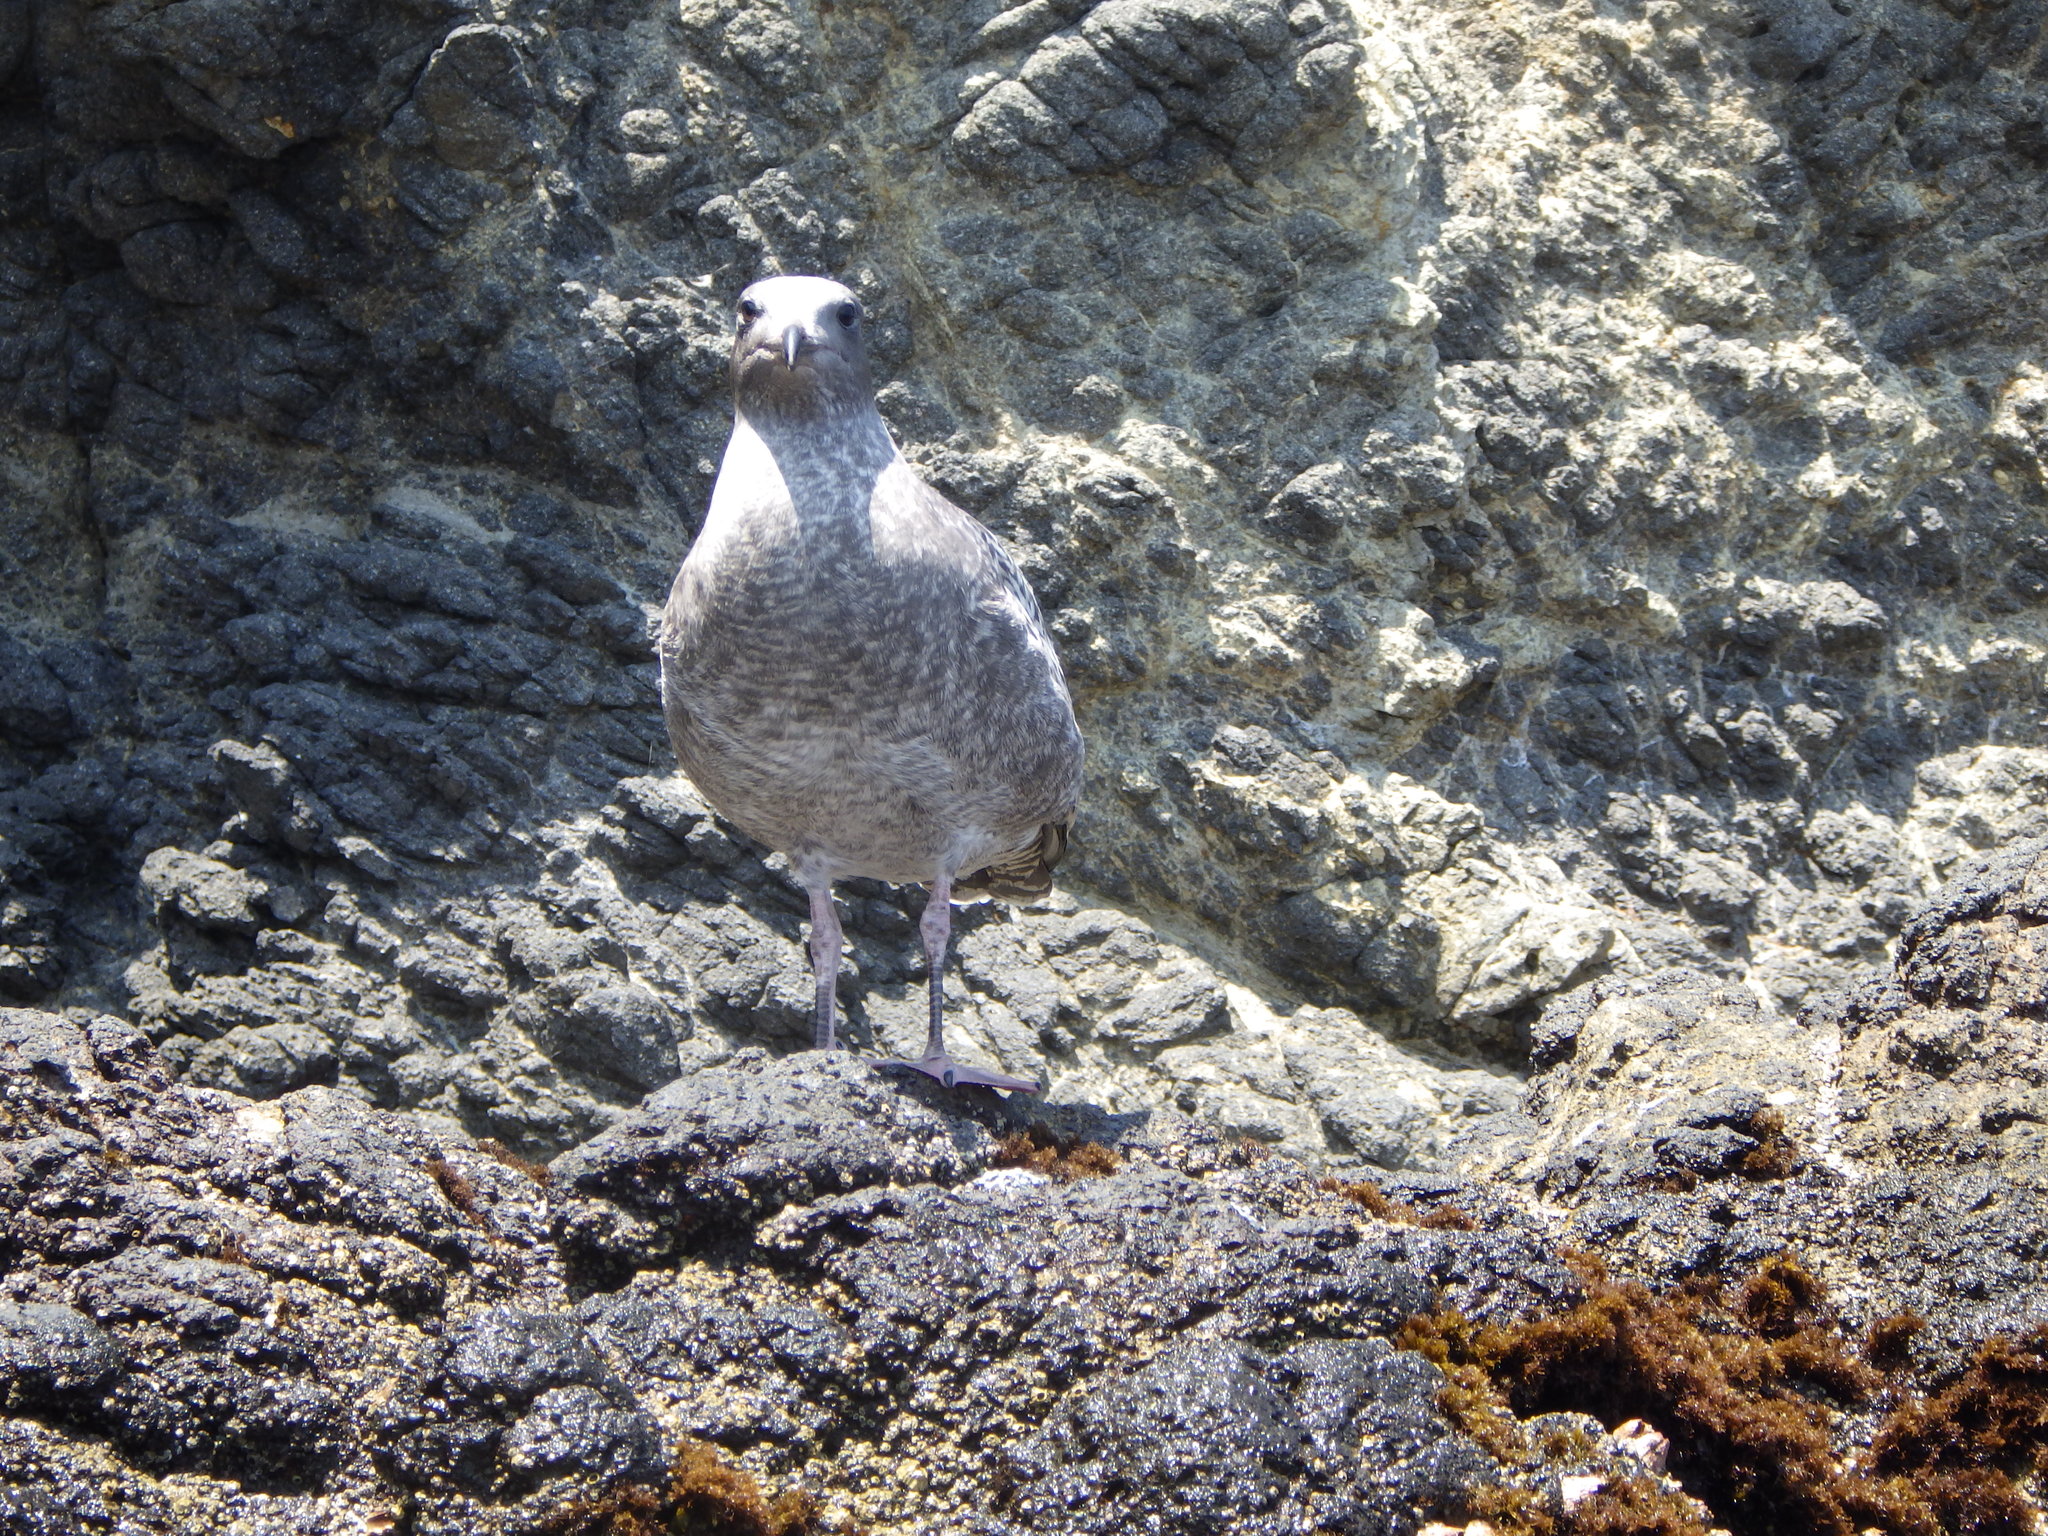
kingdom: Animalia
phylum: Chordata
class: Aves
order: Charadriiformes
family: Laridae
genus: Larus
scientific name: Larus occidentalis
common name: Western gull
